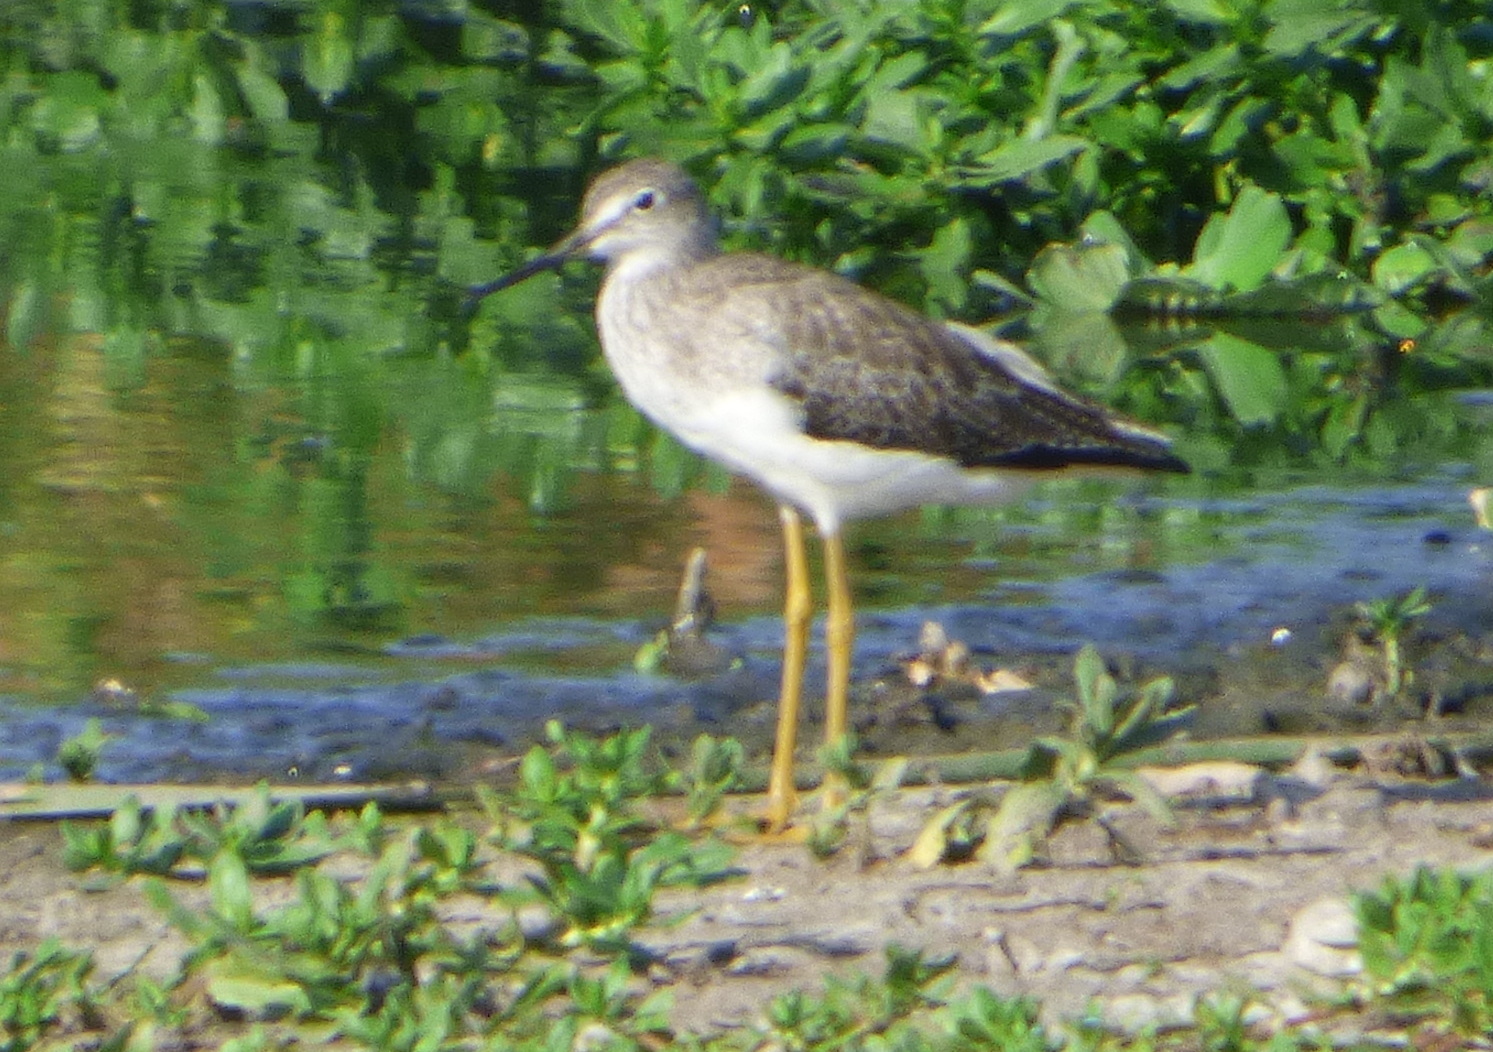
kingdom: Animalia
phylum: Chordata
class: Aves
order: Charadriiformes
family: Scolopacidae
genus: Tringa
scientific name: Tringa melanoleuca
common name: Greater yellowlegs
